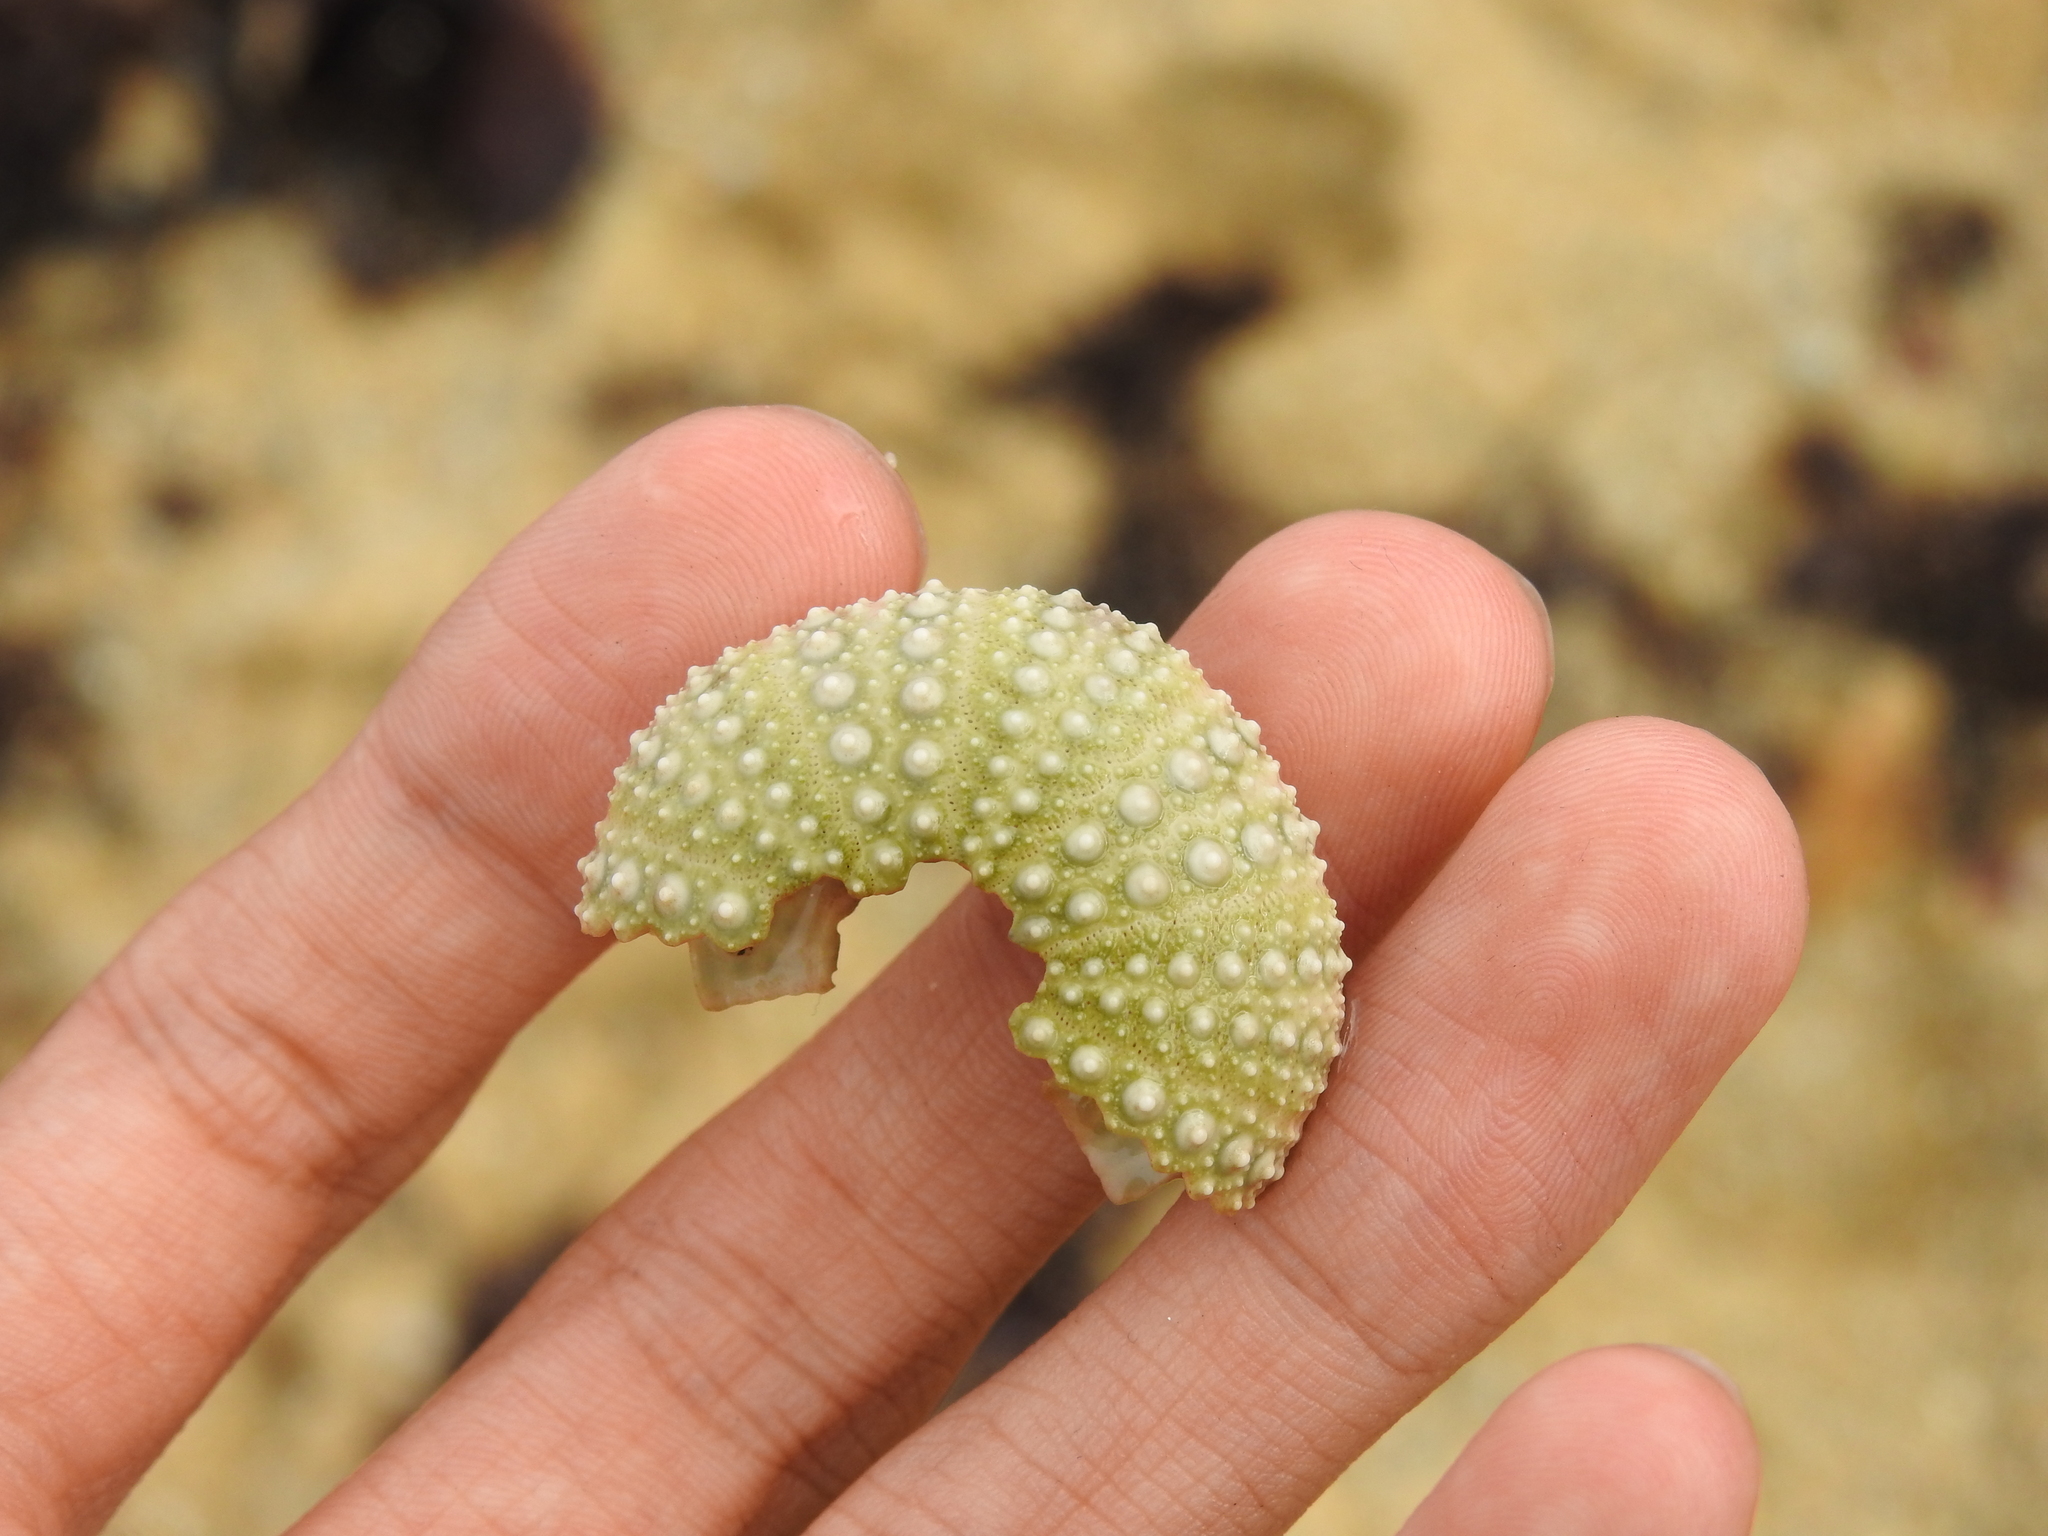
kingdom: Animalia
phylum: Echinodermata
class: Echinoidea
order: Camarodonta
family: Strongylocentrotidae
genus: Strongylocentrotus
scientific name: Strongylocentrotus purpuratus
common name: Purple sea urchin
